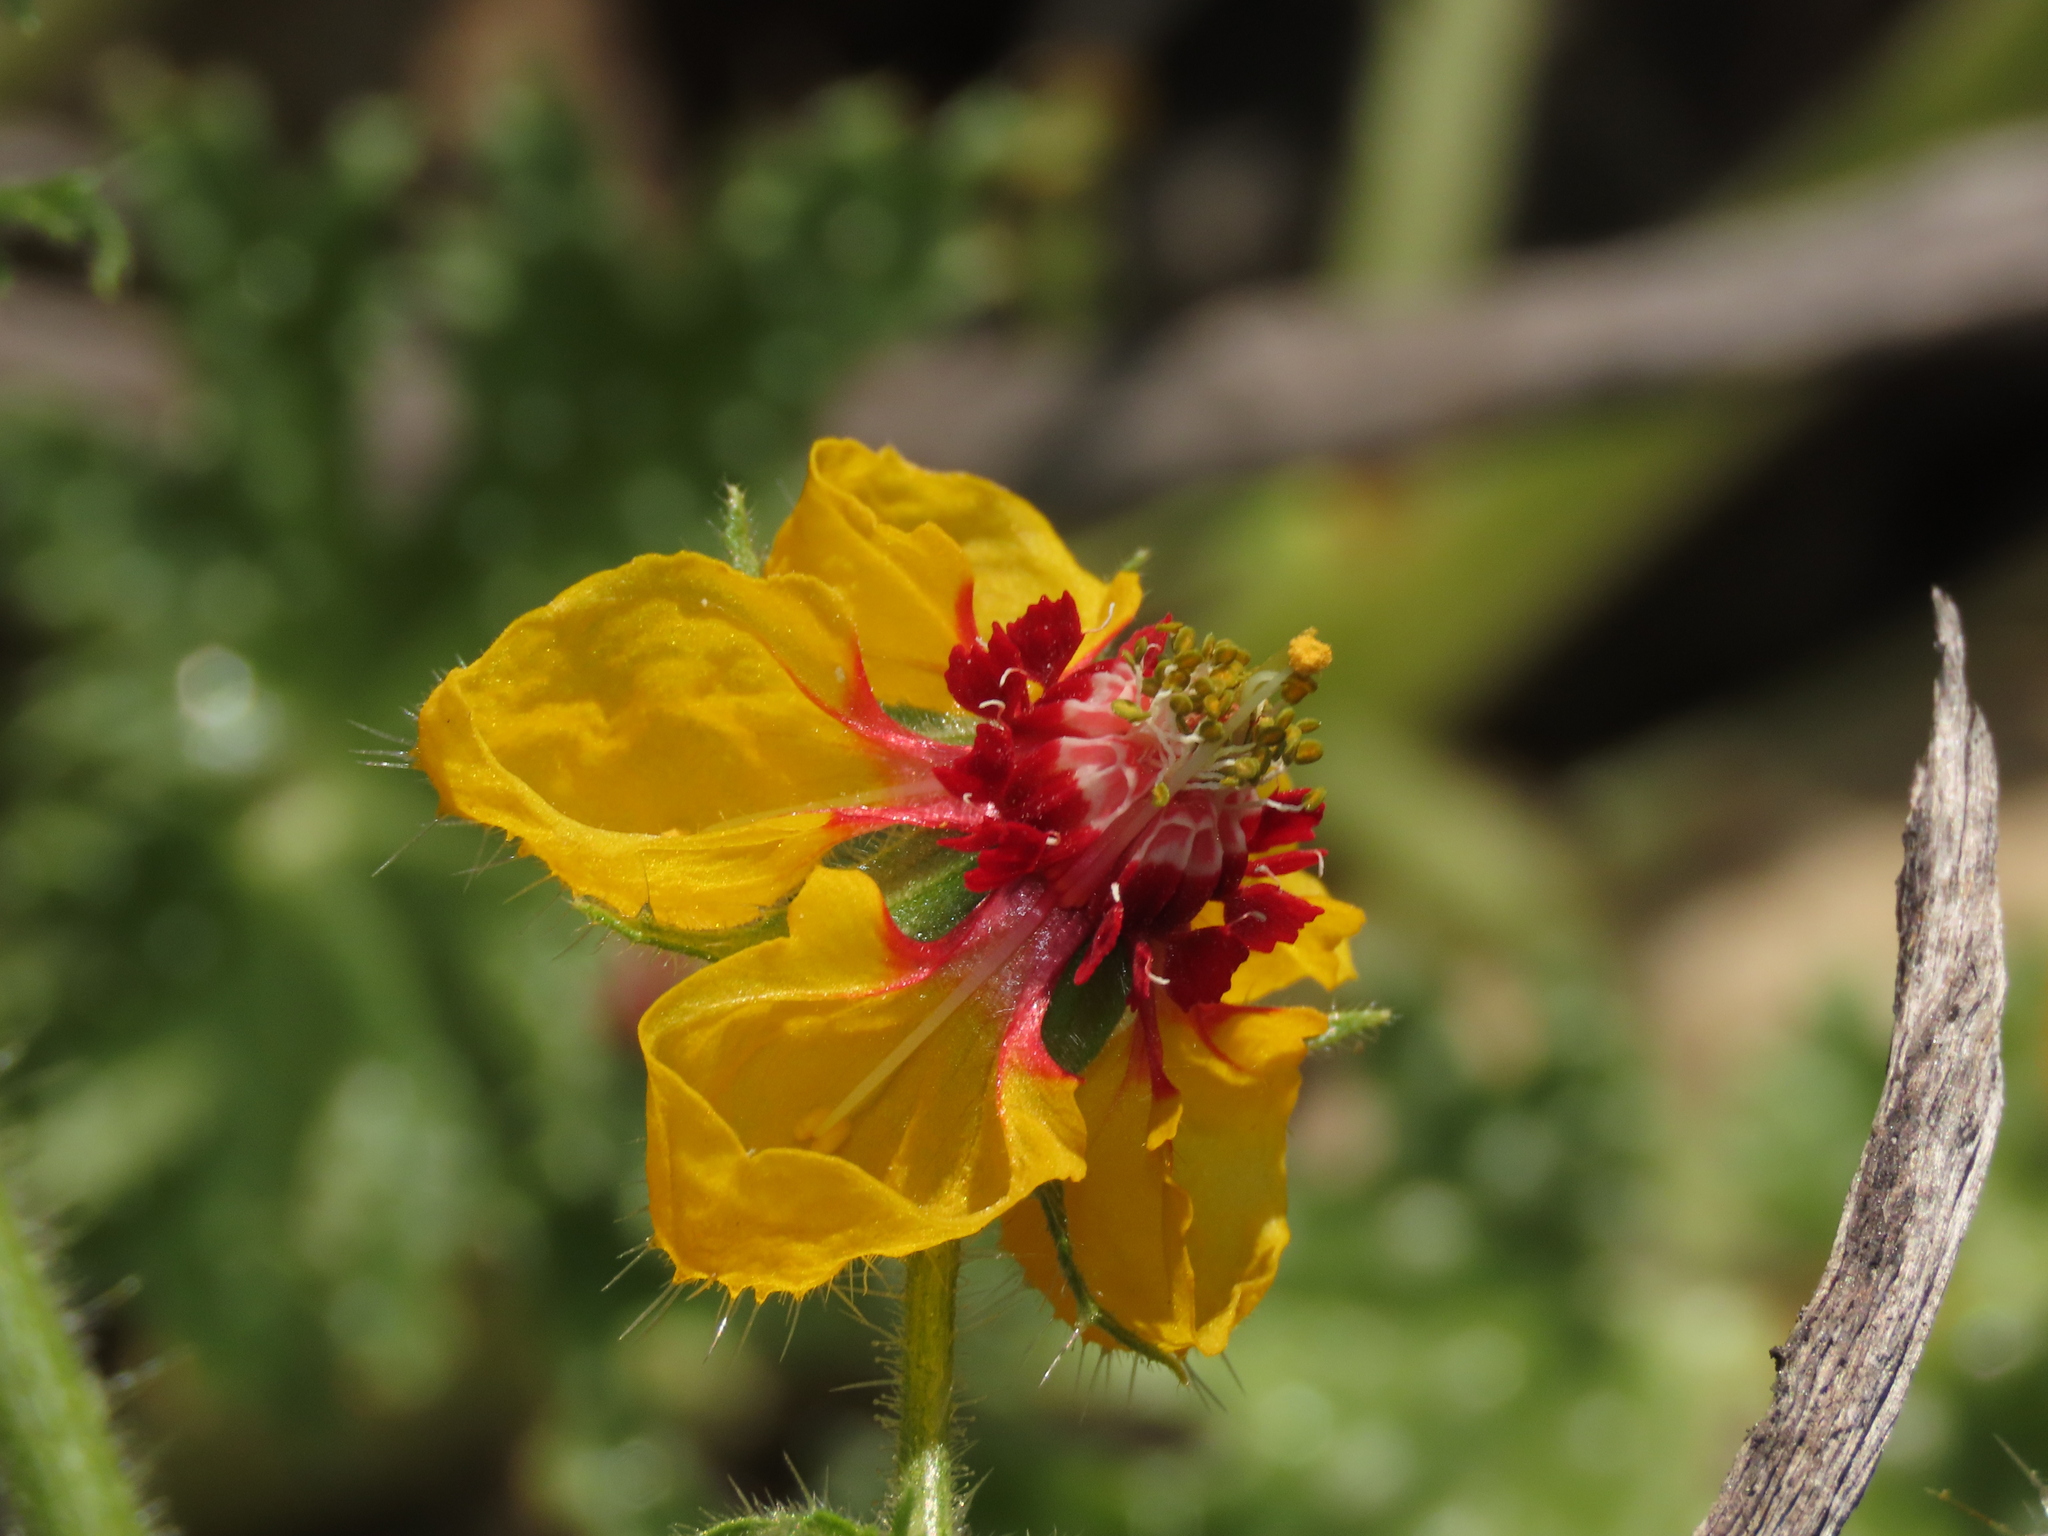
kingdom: Plantae
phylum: Tracheophyta
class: Magnoliopsida
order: Cornales
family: Loasaceae
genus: Loasa
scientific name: Loasa tricolor
